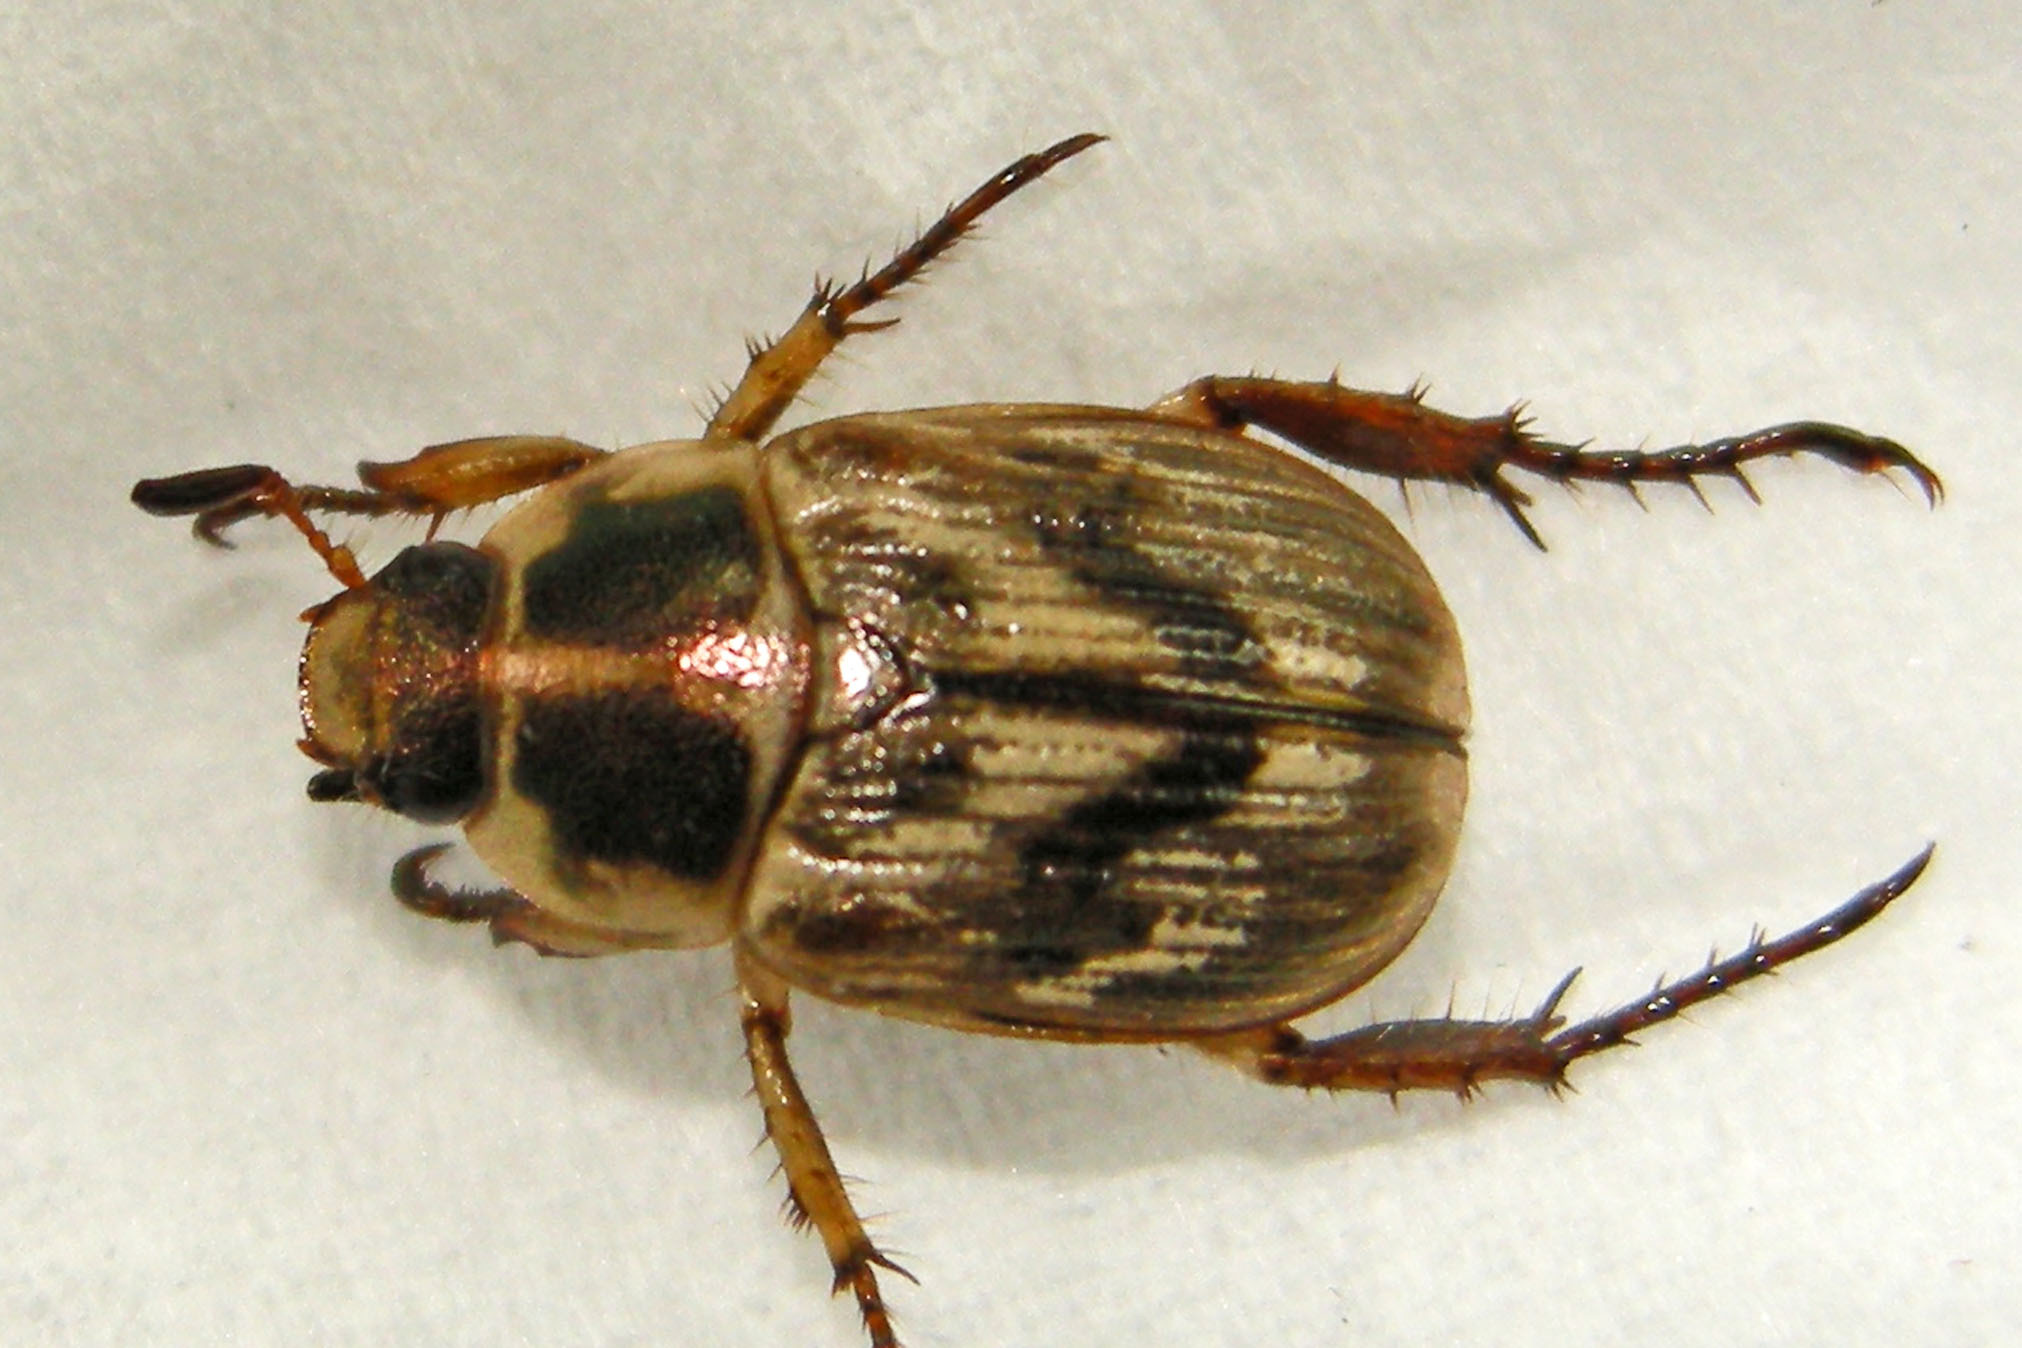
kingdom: Animalia
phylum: Arthropoda
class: Insecta
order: Coleoptera
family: Scarabaeidae
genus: Exomala
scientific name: Exomala orientalis
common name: Oriental beetle
